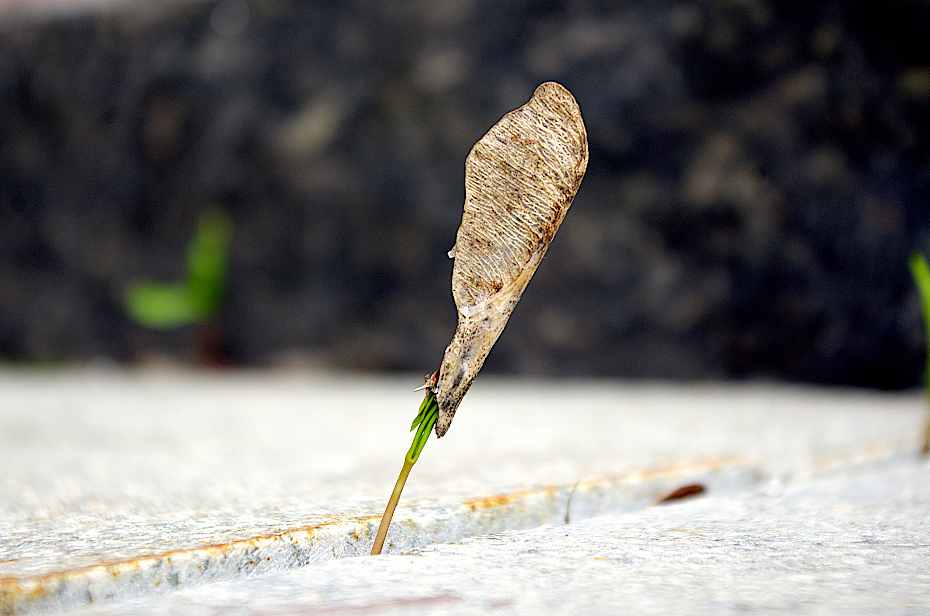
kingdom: Plantae
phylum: Tracheophyta
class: Magnoliopsida
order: Sapindales
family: Sapindaceae
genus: Acer
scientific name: Acer negundo
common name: Ashleaf maple
